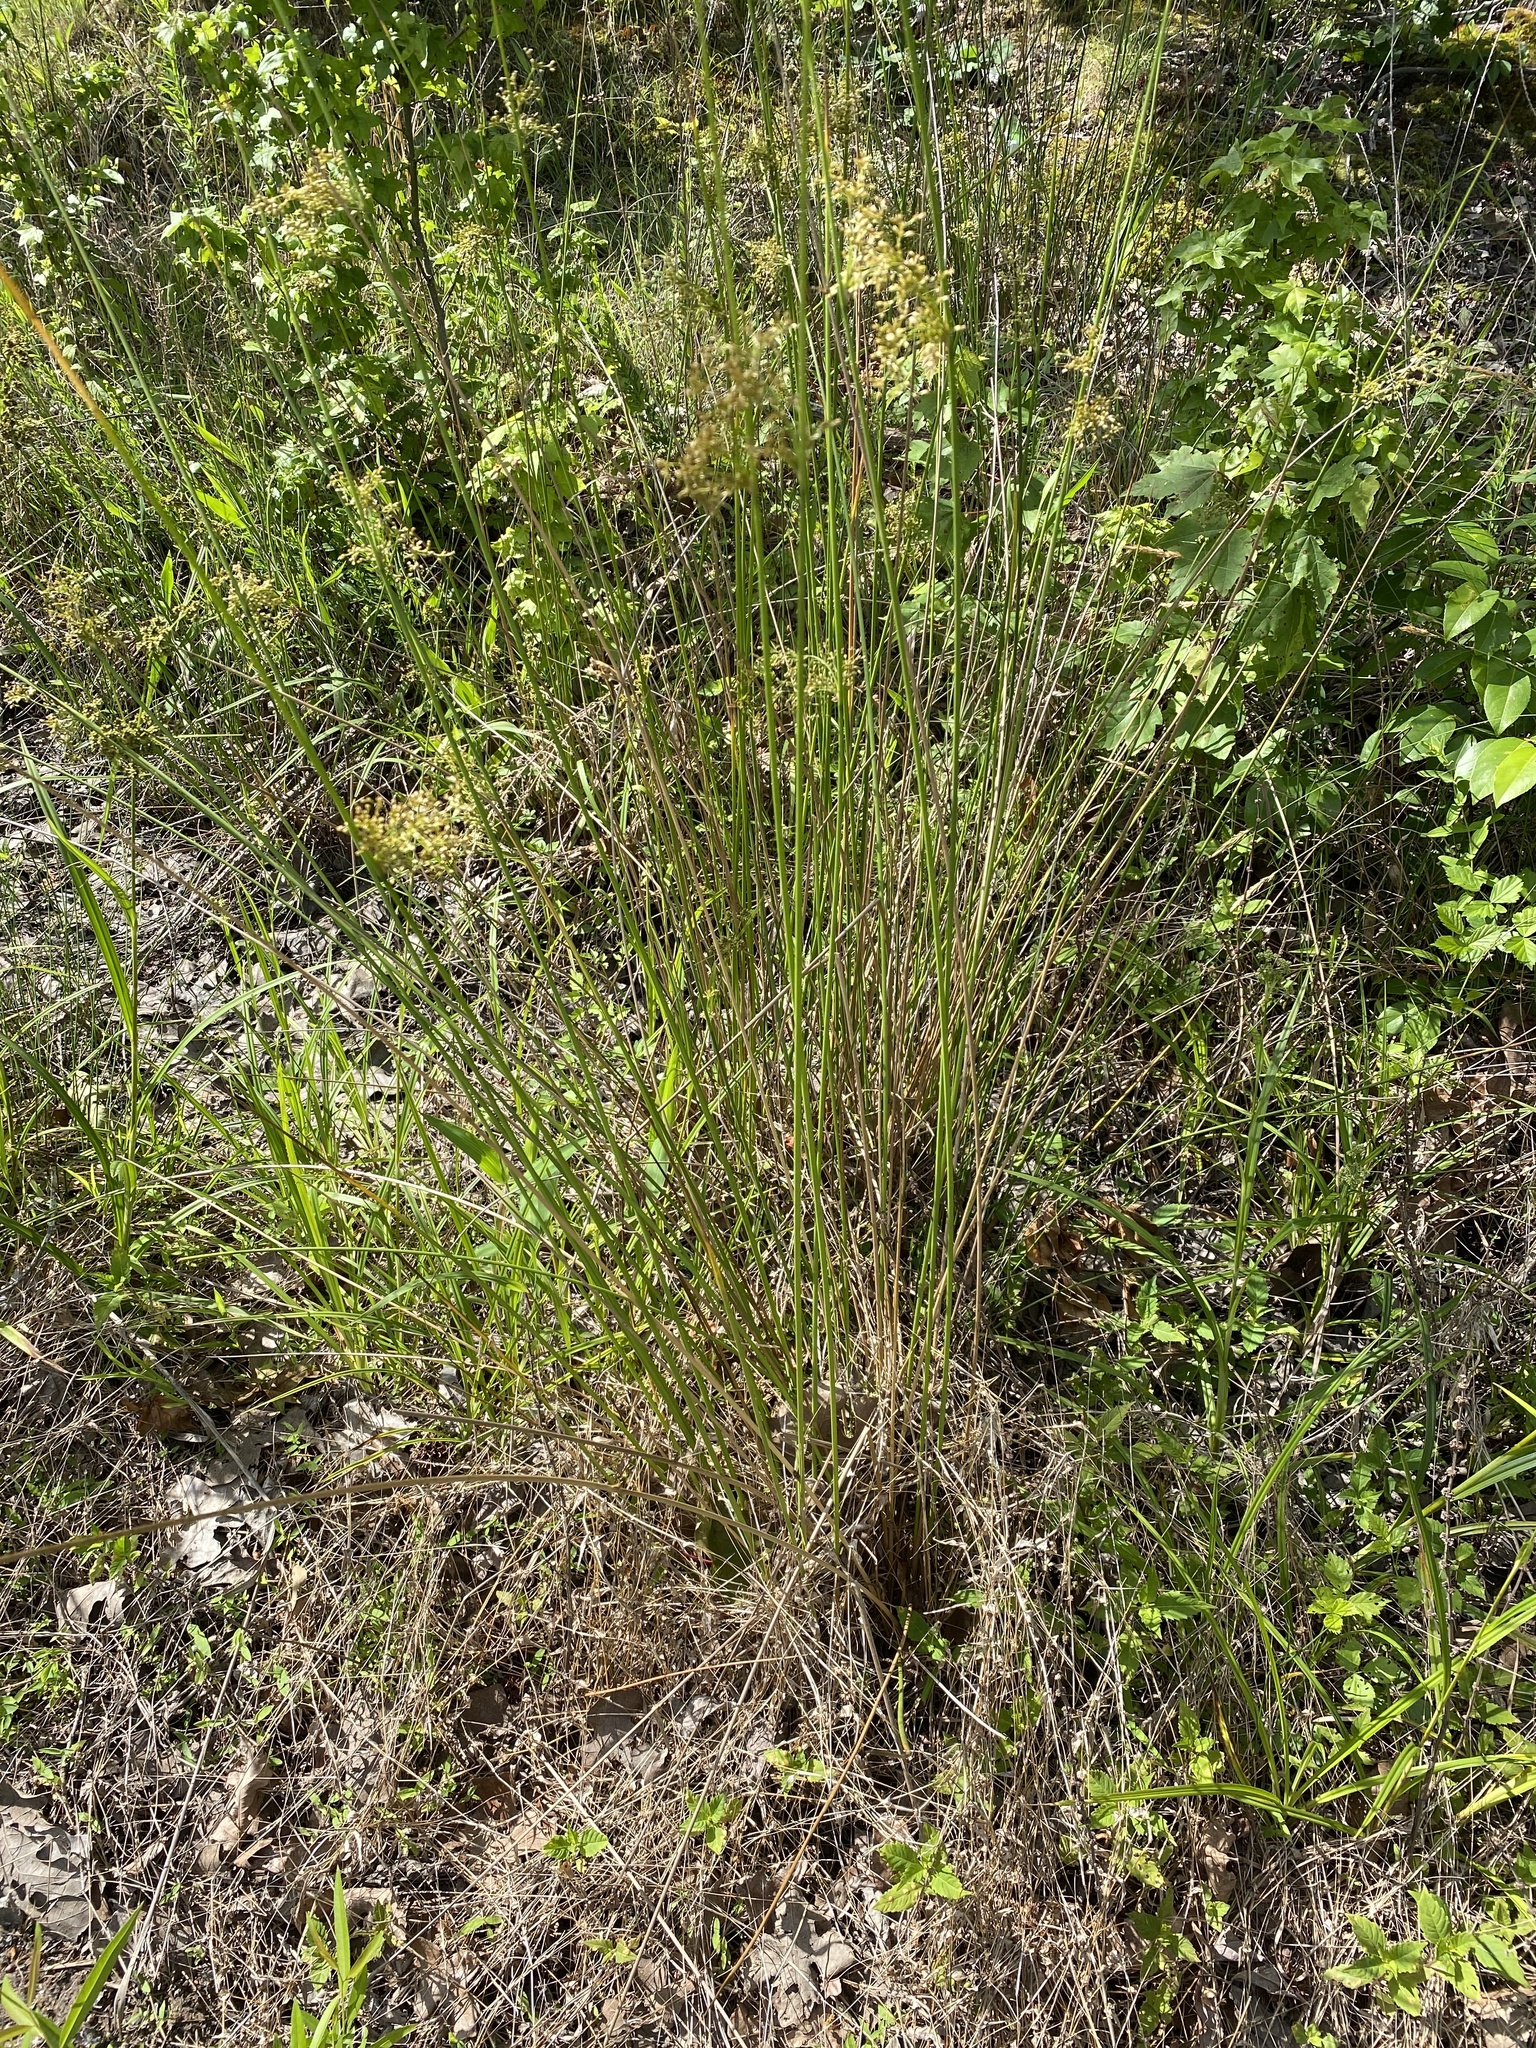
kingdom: Plantae
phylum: Tracheophyta
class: Liliopsida
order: Poales
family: Juncaceae
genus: Juncus
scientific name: Juncus effusus
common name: Soft rush
